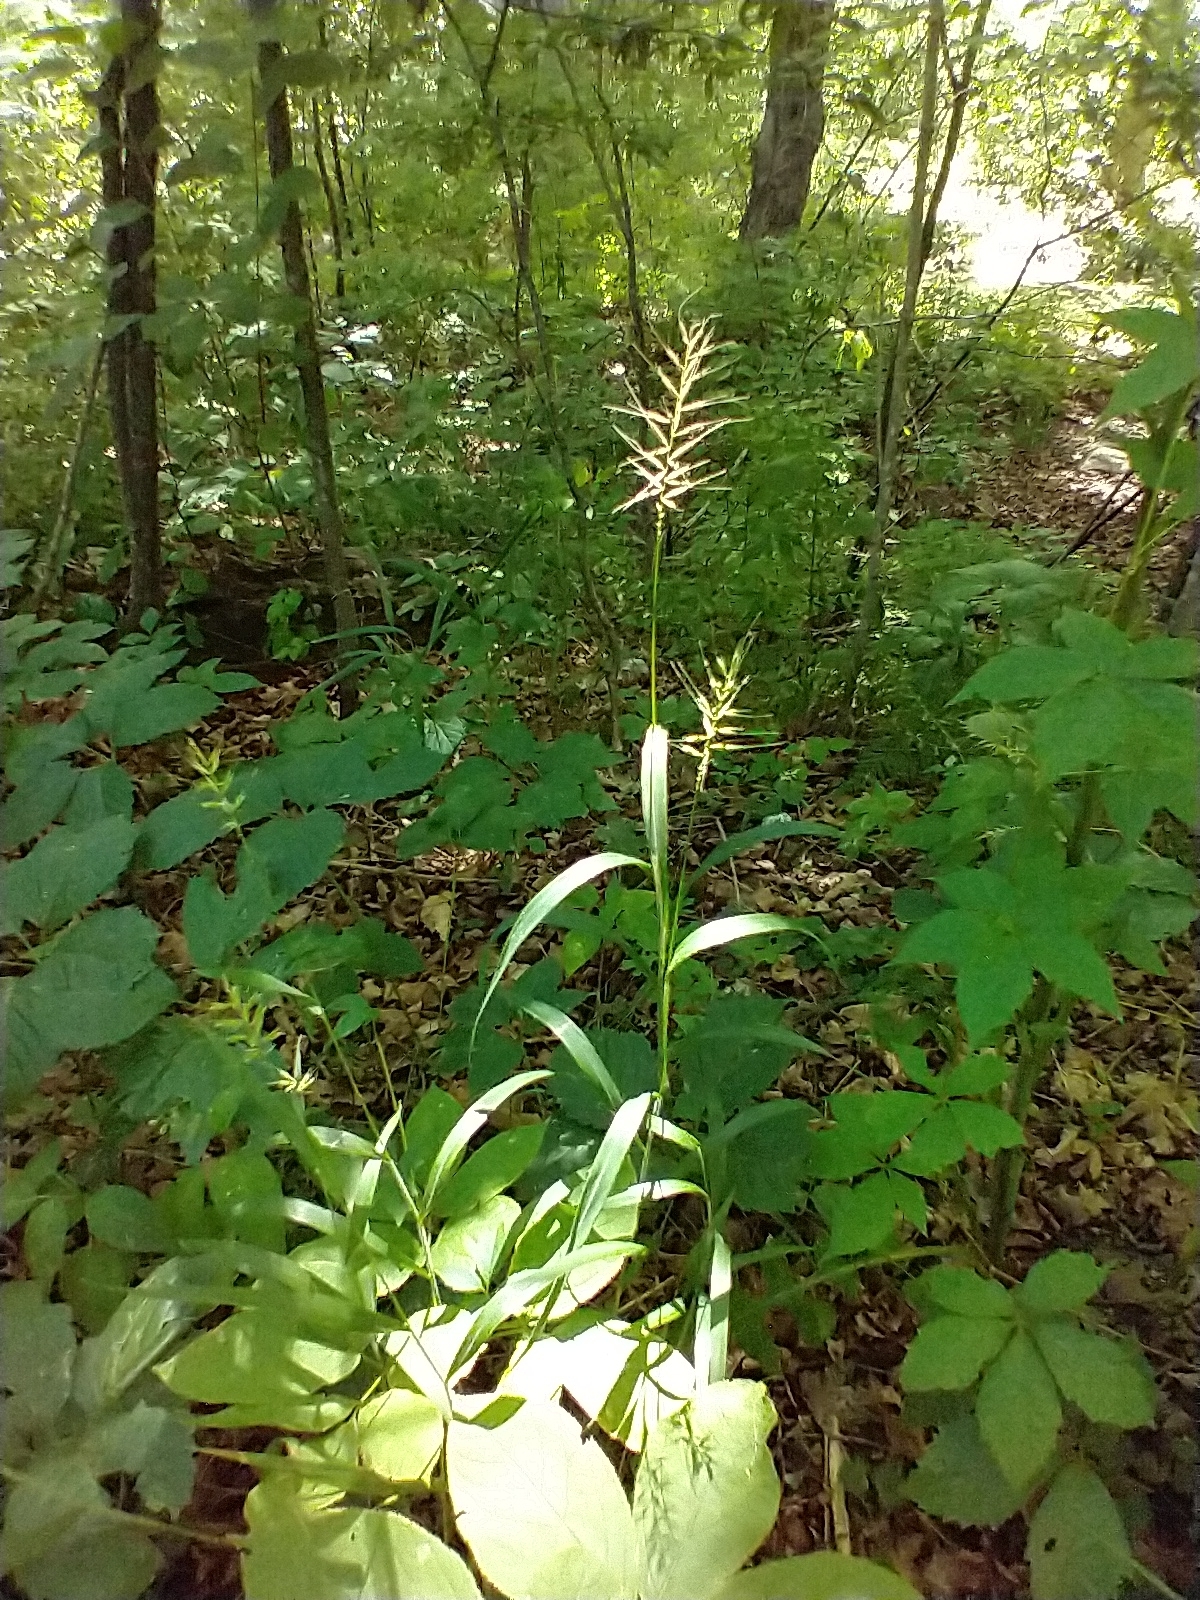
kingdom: Plantae
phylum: Tracheophyta
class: Liliopsida
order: Poales
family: Poaceae
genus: Elymus
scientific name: Elymus hystrix
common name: Bottlebrush grass
